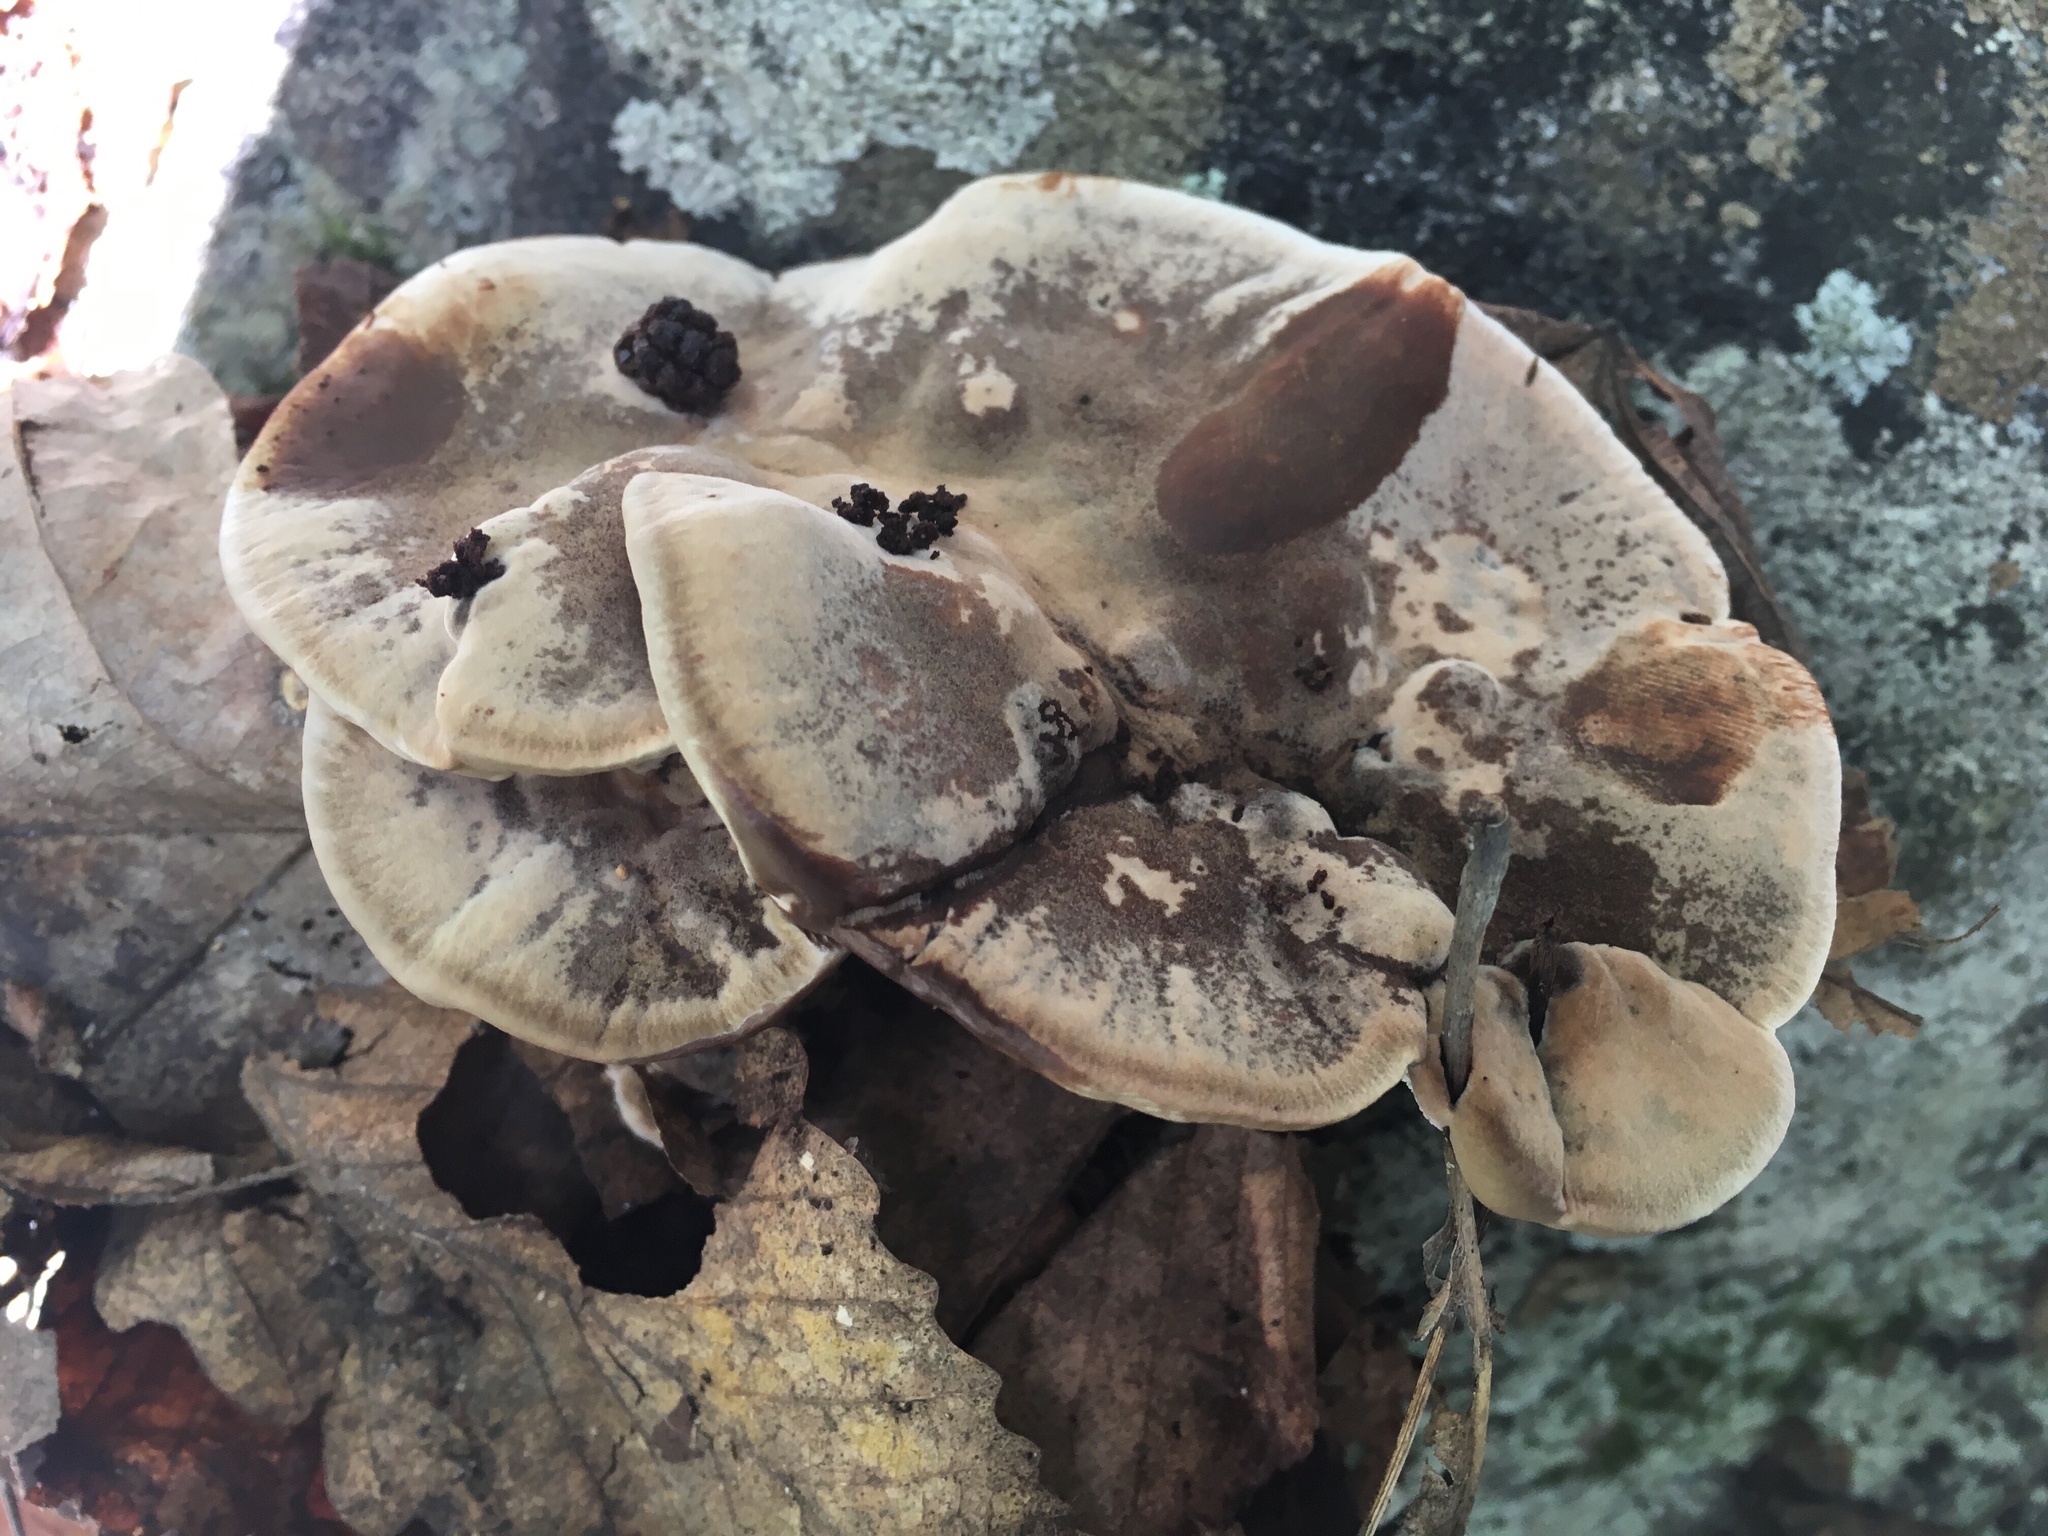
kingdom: Fungi
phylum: Basidiomycota
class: Agaricomycetes
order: Polyporales
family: Phanerochaetaceae
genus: Bjerkandera
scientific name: Bjerkandera adusta
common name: Smoky bracket
